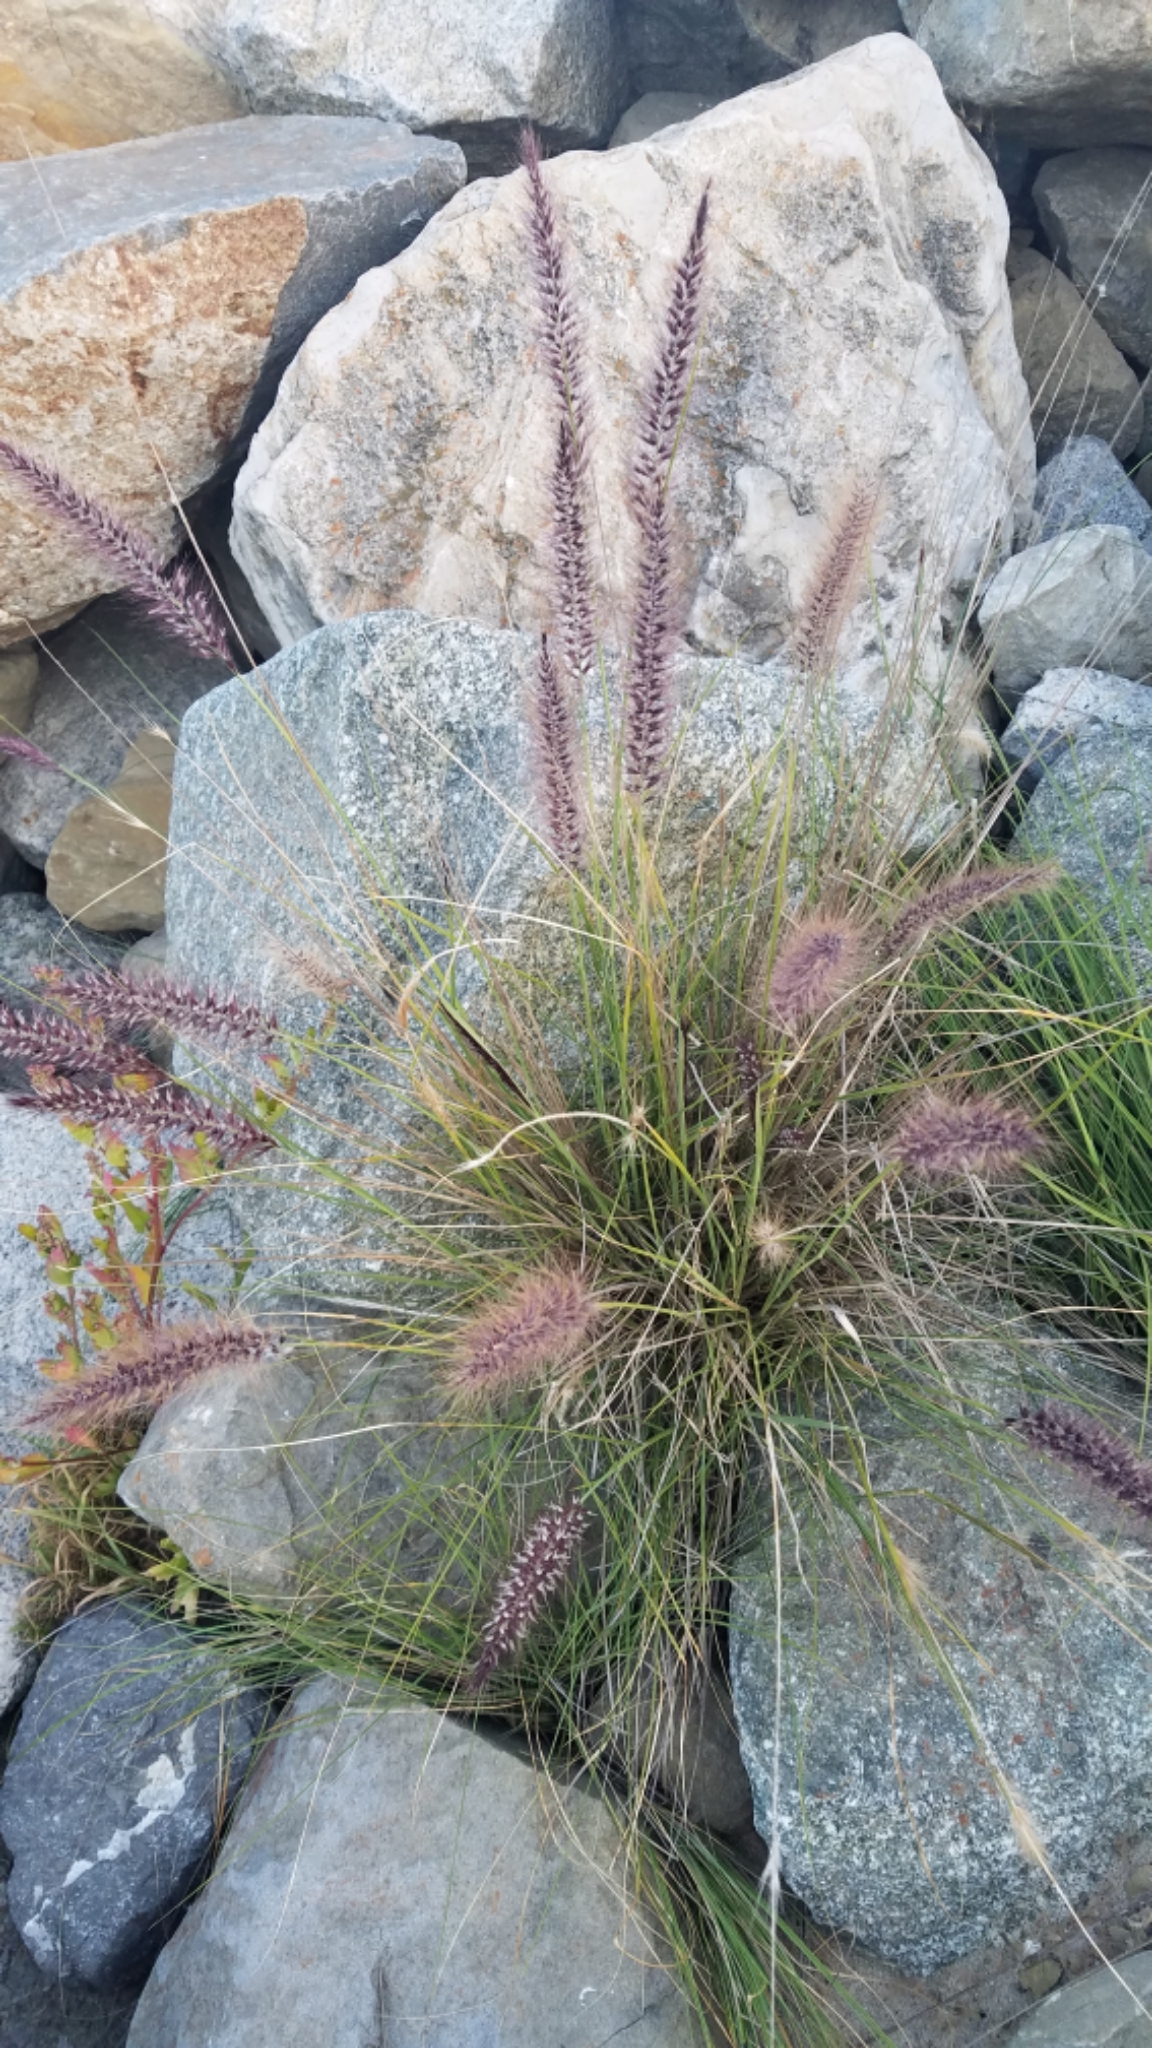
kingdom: Plantae
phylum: Tracheophyta
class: Liliopsida
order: Poales
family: Poaceae
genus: Cenchrus
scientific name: Cenchrus setaceus
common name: Crimson fountaingrass
